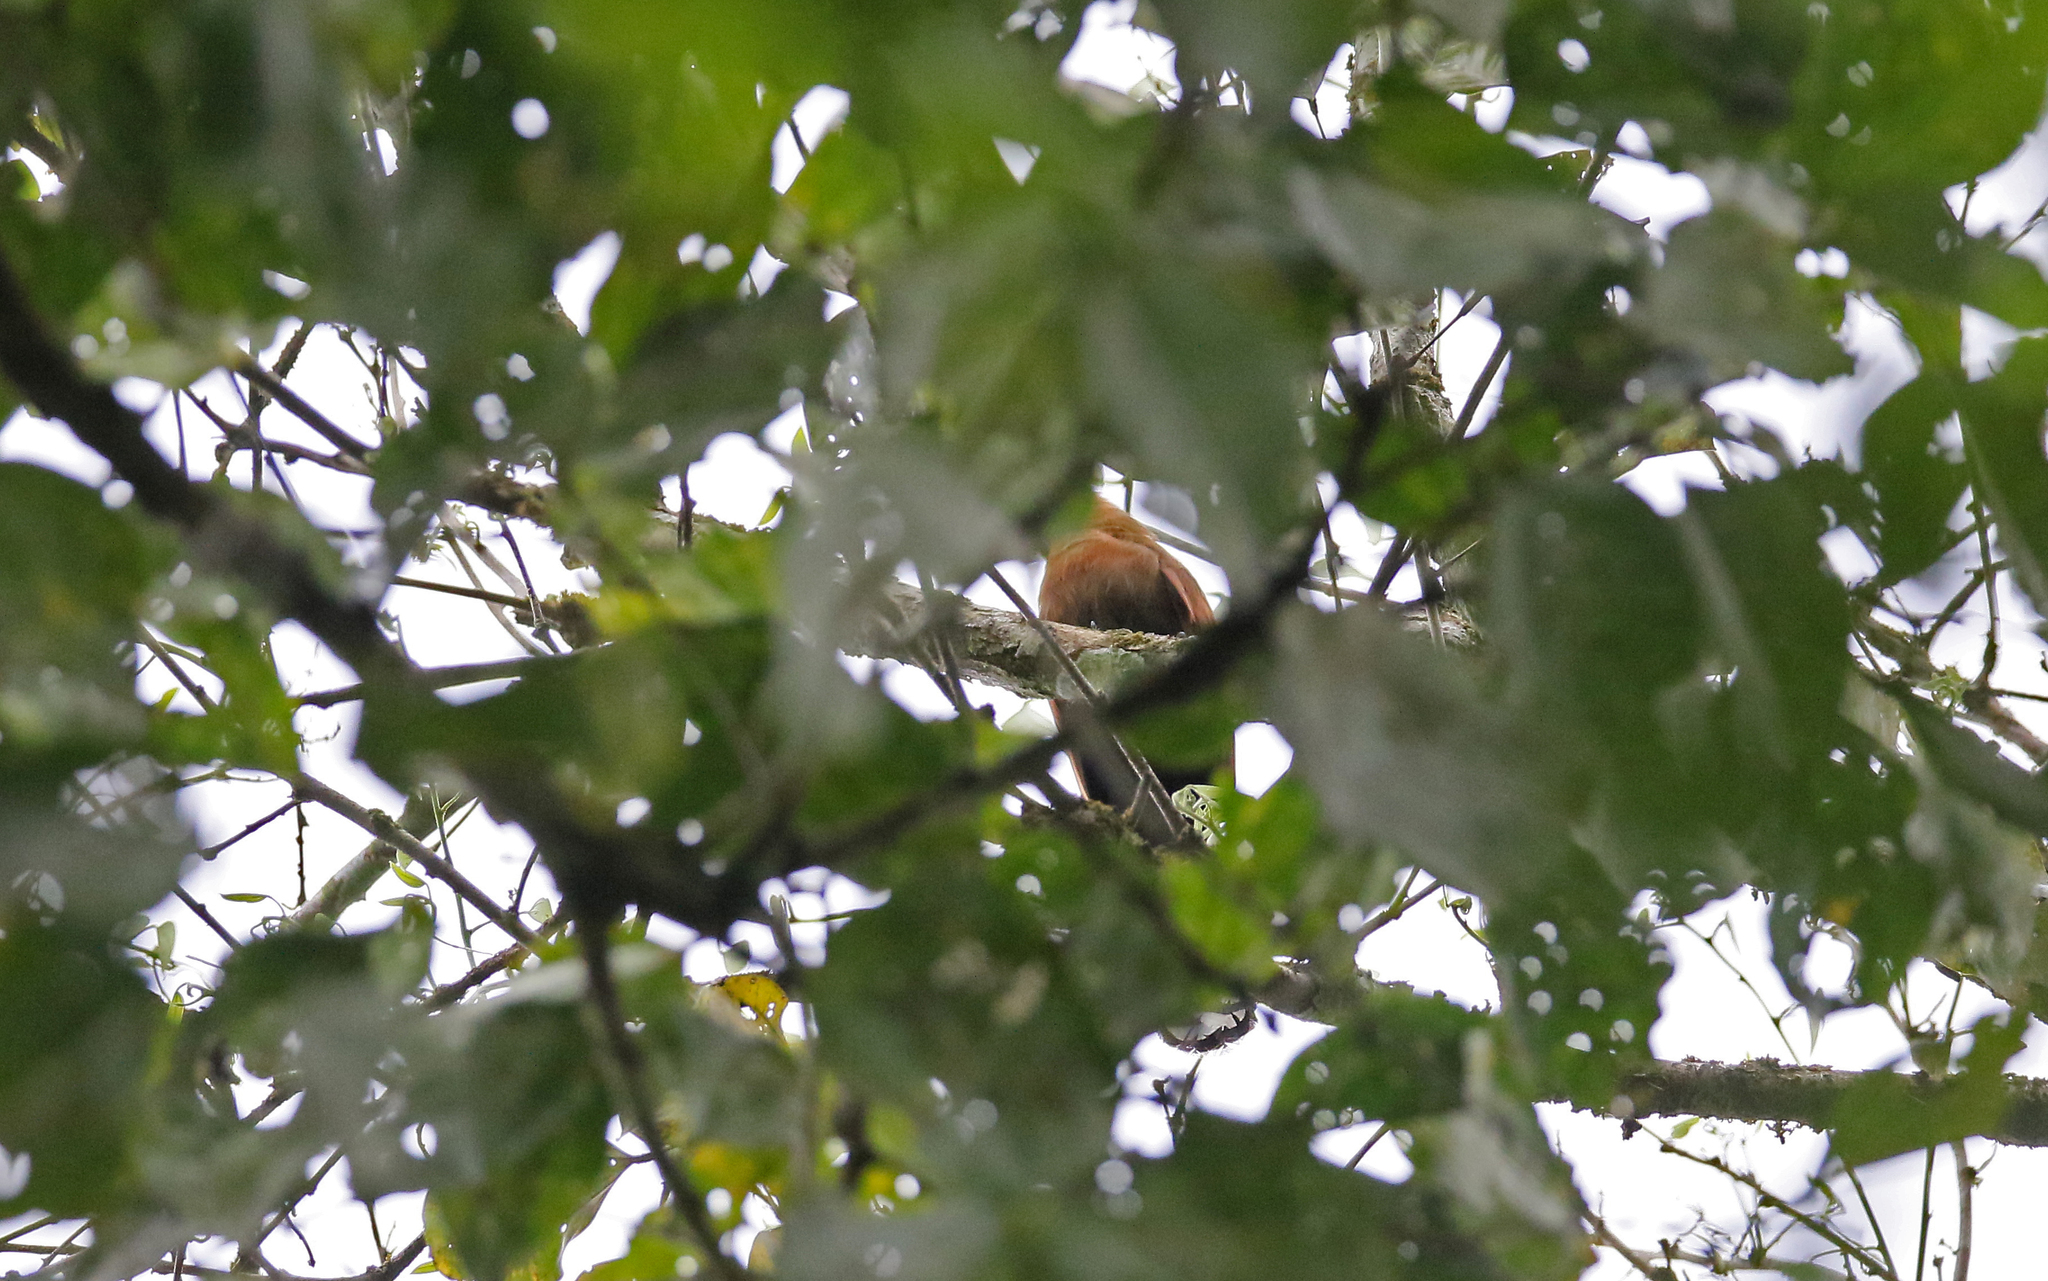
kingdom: Animalia
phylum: Chordata
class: Aves
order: Cuculiformes
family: Cuculidae
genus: Piaya
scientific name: Piaya melanogaster
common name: Black-bellied cuckoo
